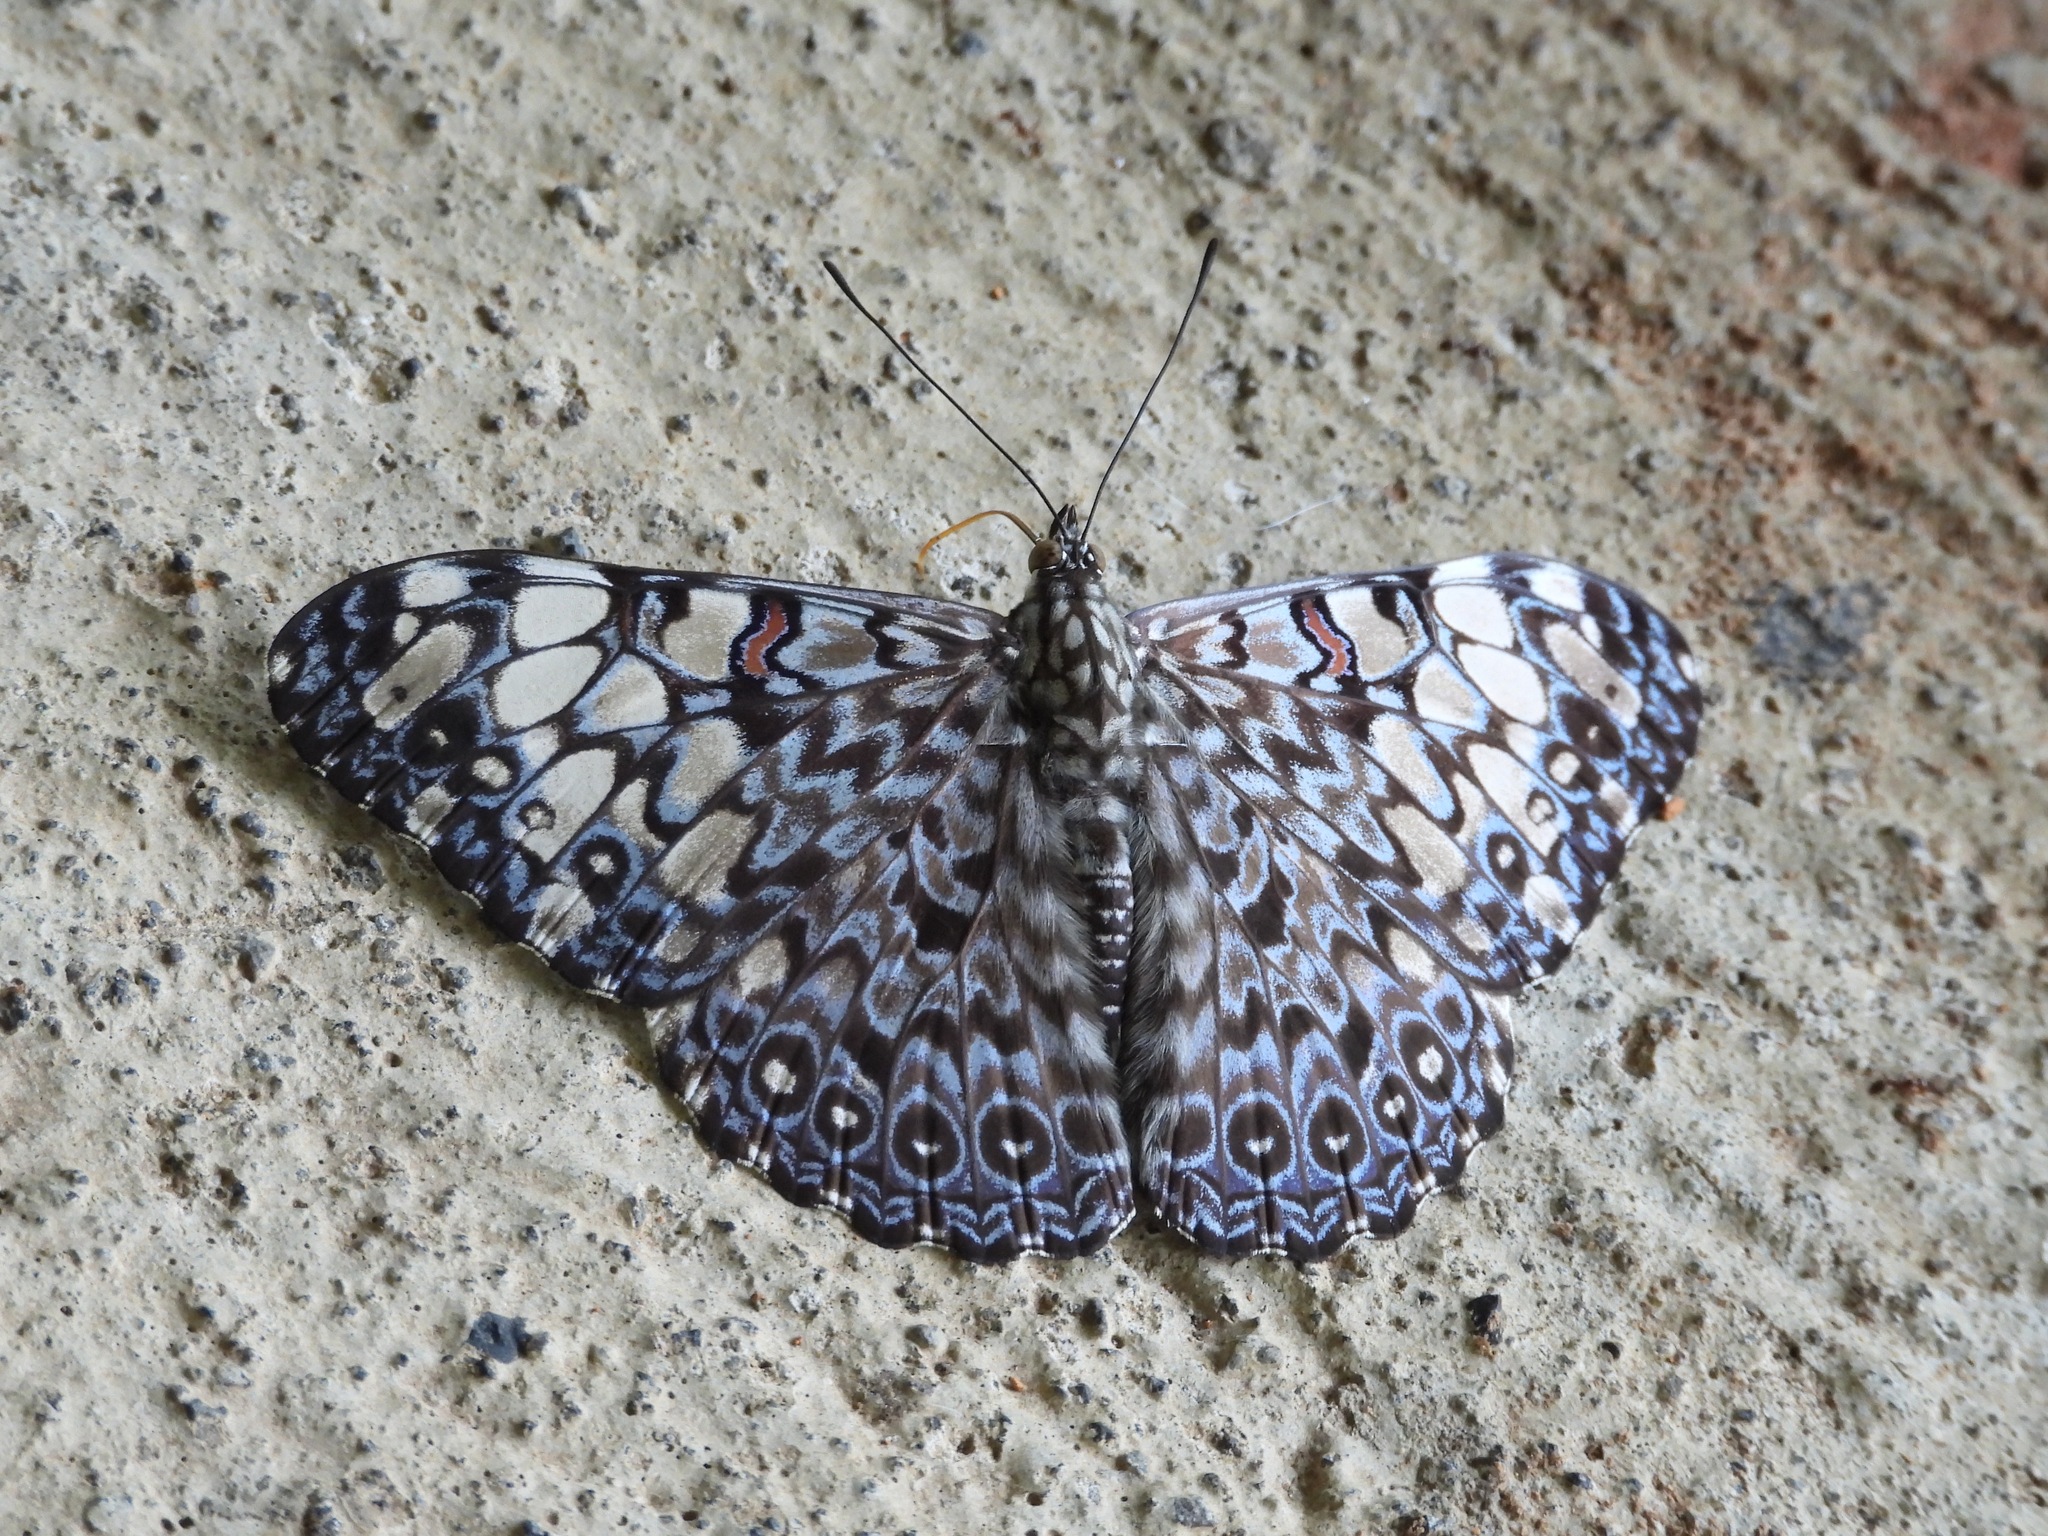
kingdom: Animalia
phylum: Arthropoda
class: Insecta
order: Lepidoptera
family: Nymphalidae
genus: Hamadryas
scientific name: Hamadryas feronia
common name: Variable cracker
